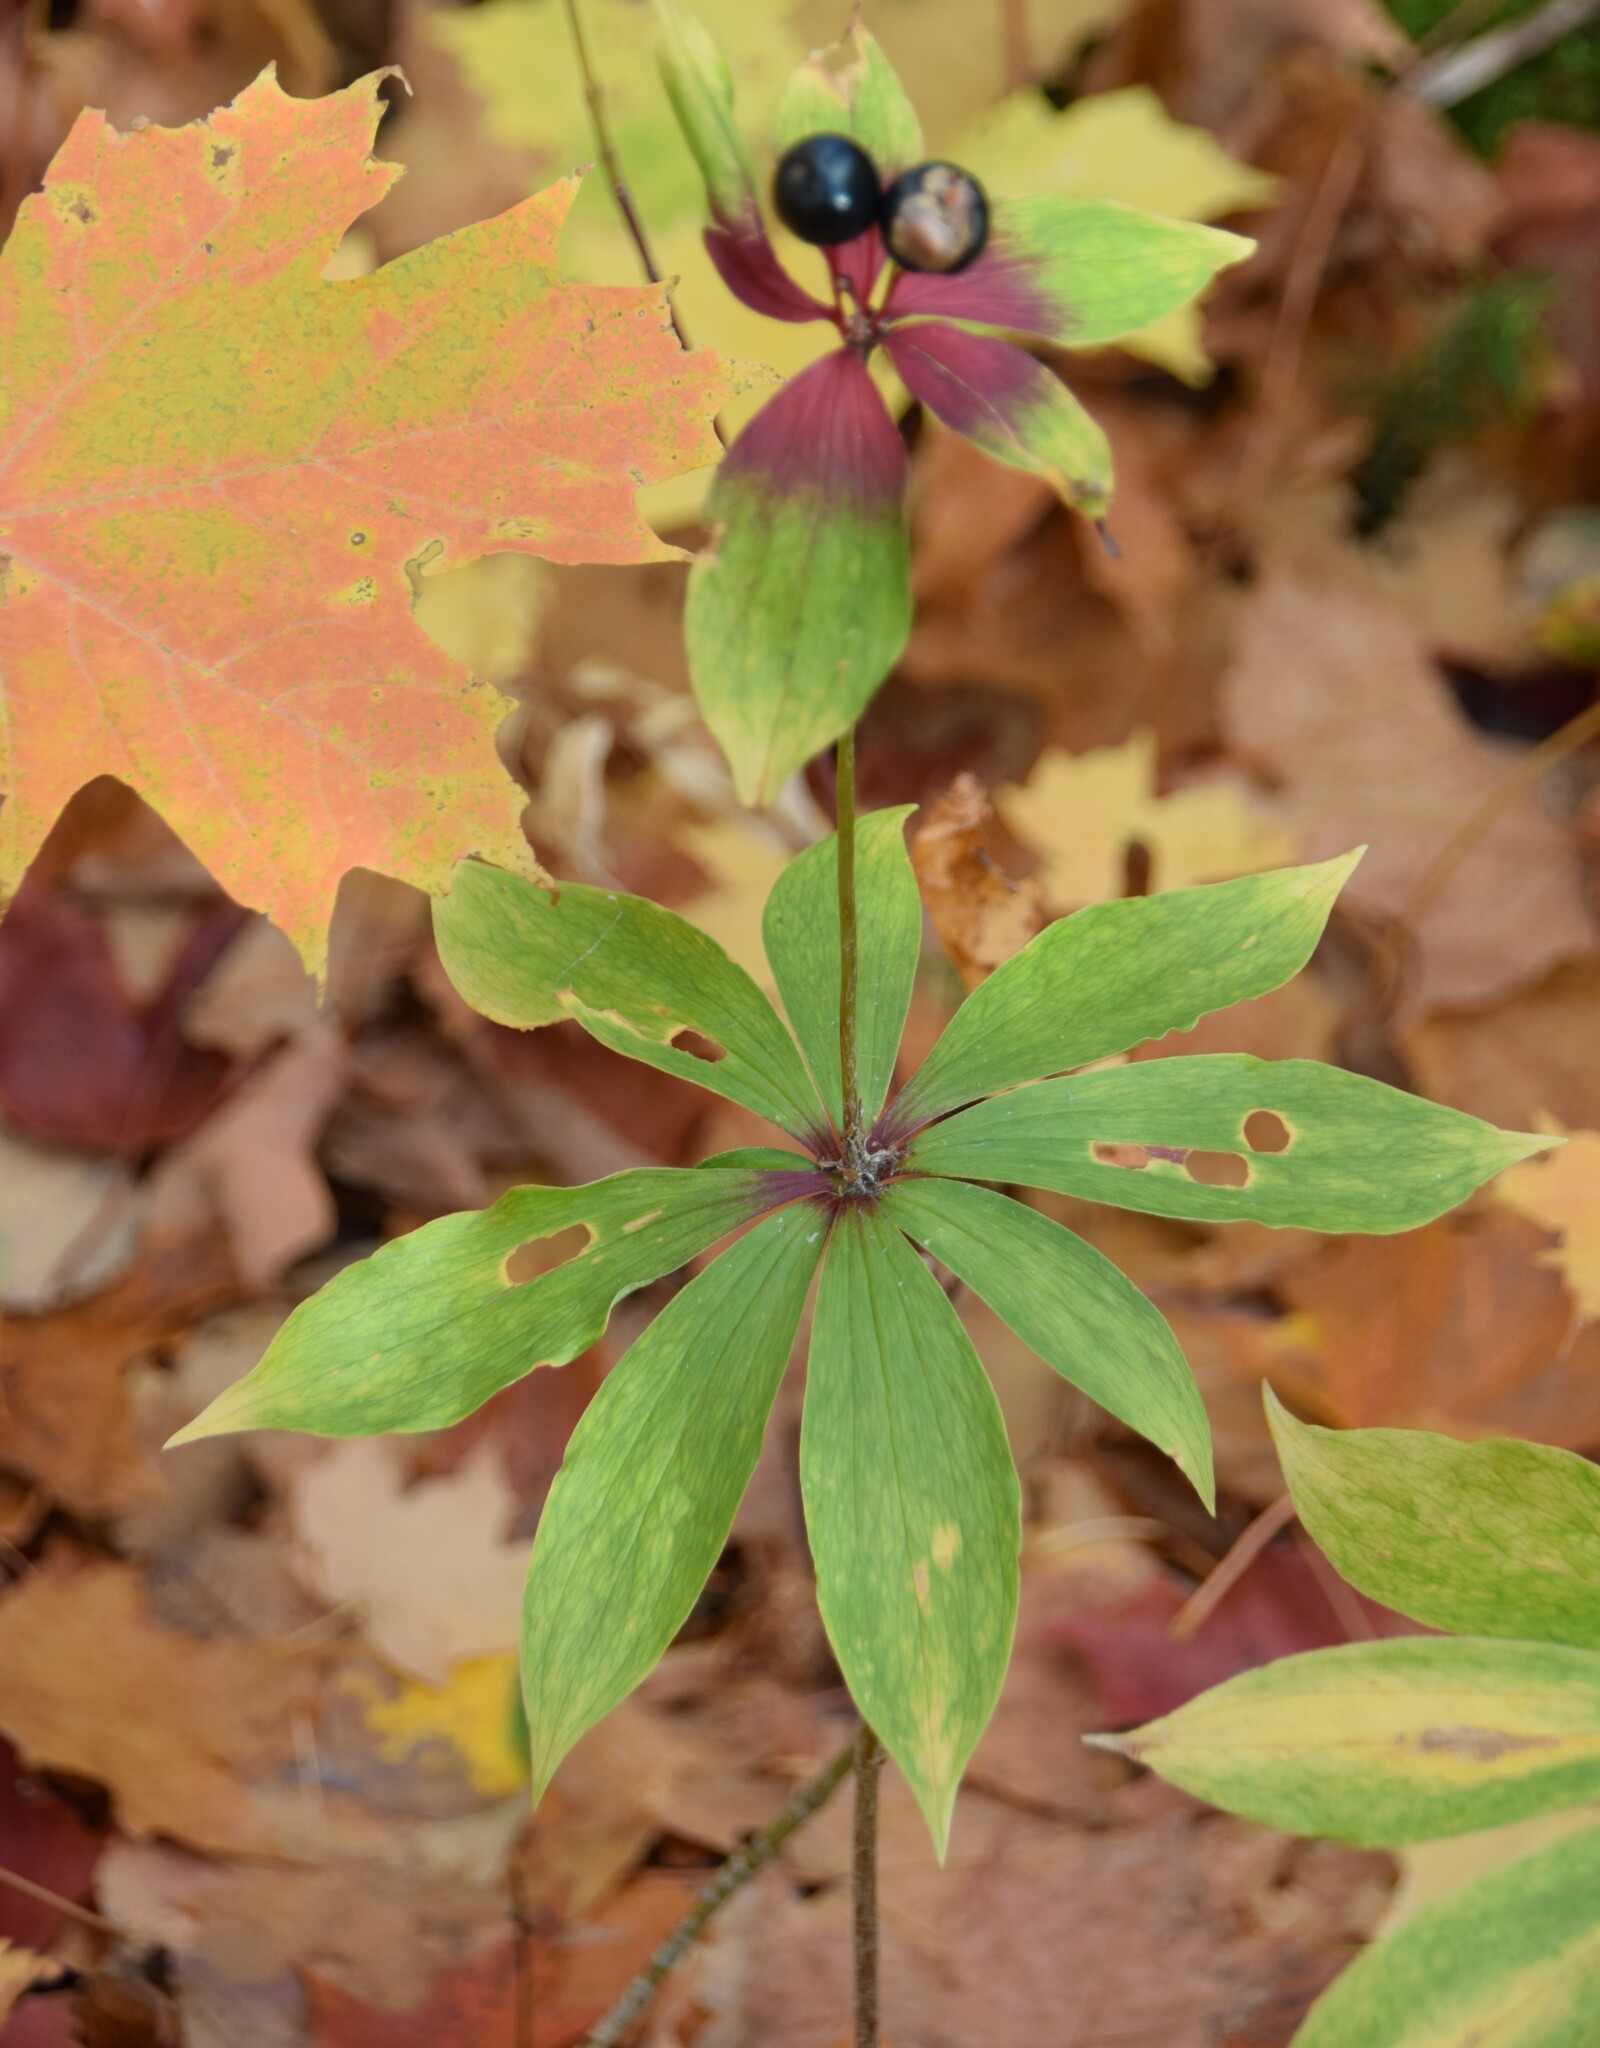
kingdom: Plantae
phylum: Tracheophyta
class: Liliopsida
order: Liliales
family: Liliaceae
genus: Medeola
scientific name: Medeola virginiana
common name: Indian cucumber-root
